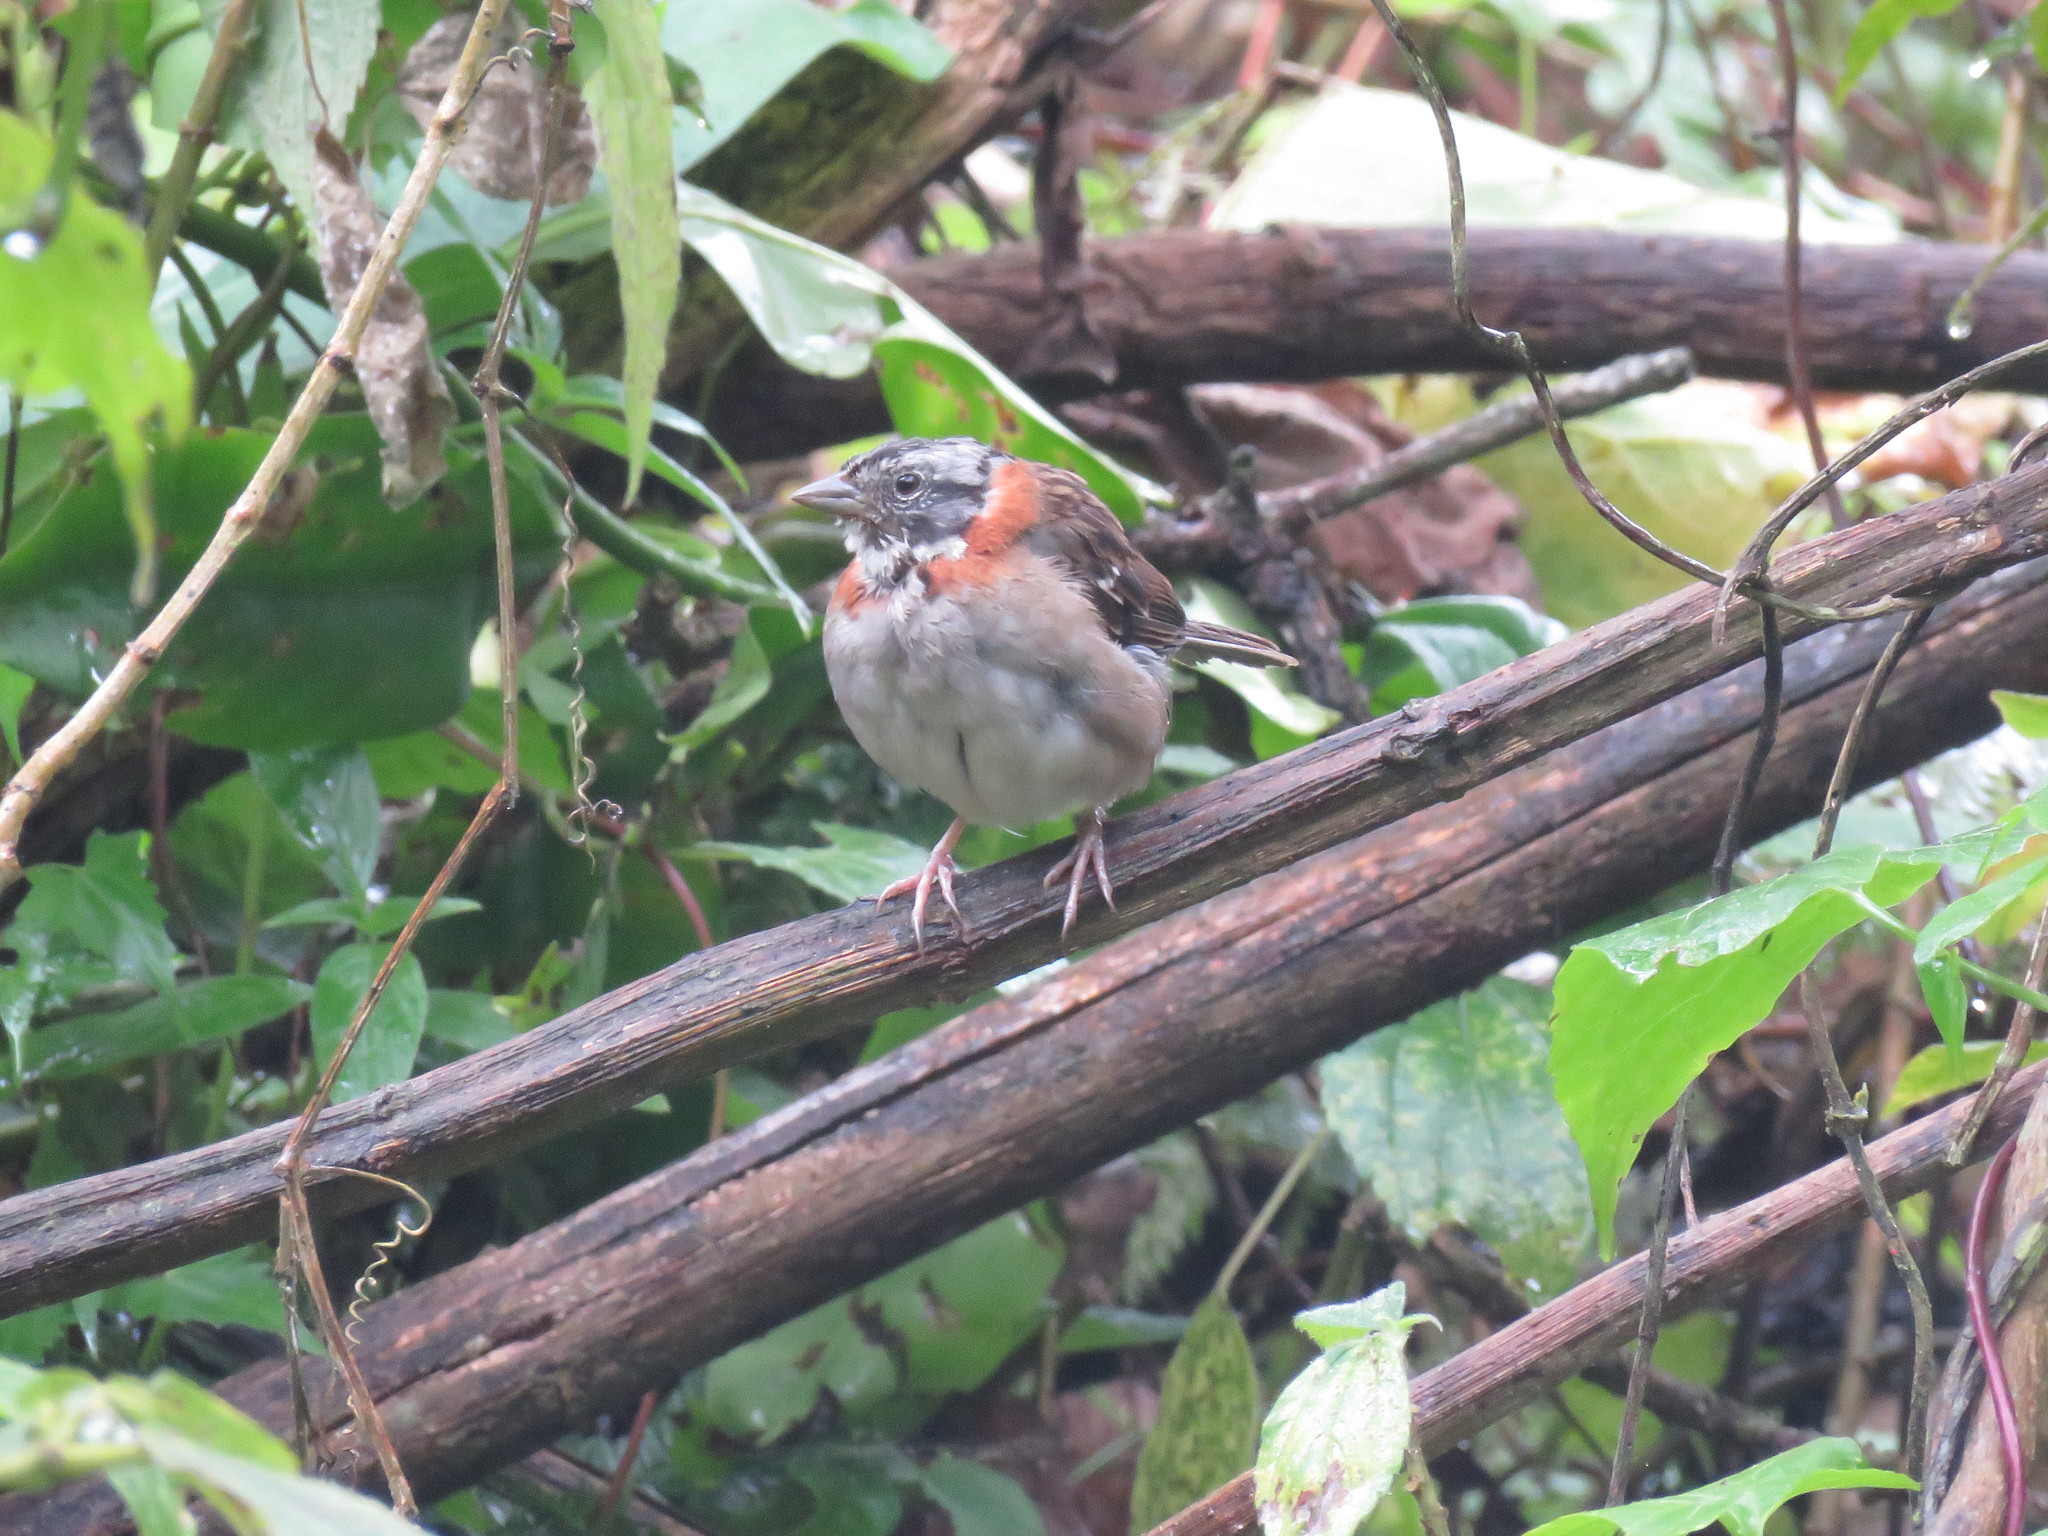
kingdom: Animalia
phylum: Chordata
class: Aves
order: Passeriformes
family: Passerellidae
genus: Zonotrichia
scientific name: Zonotrichia capensis
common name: Rufous-collared sparrow
